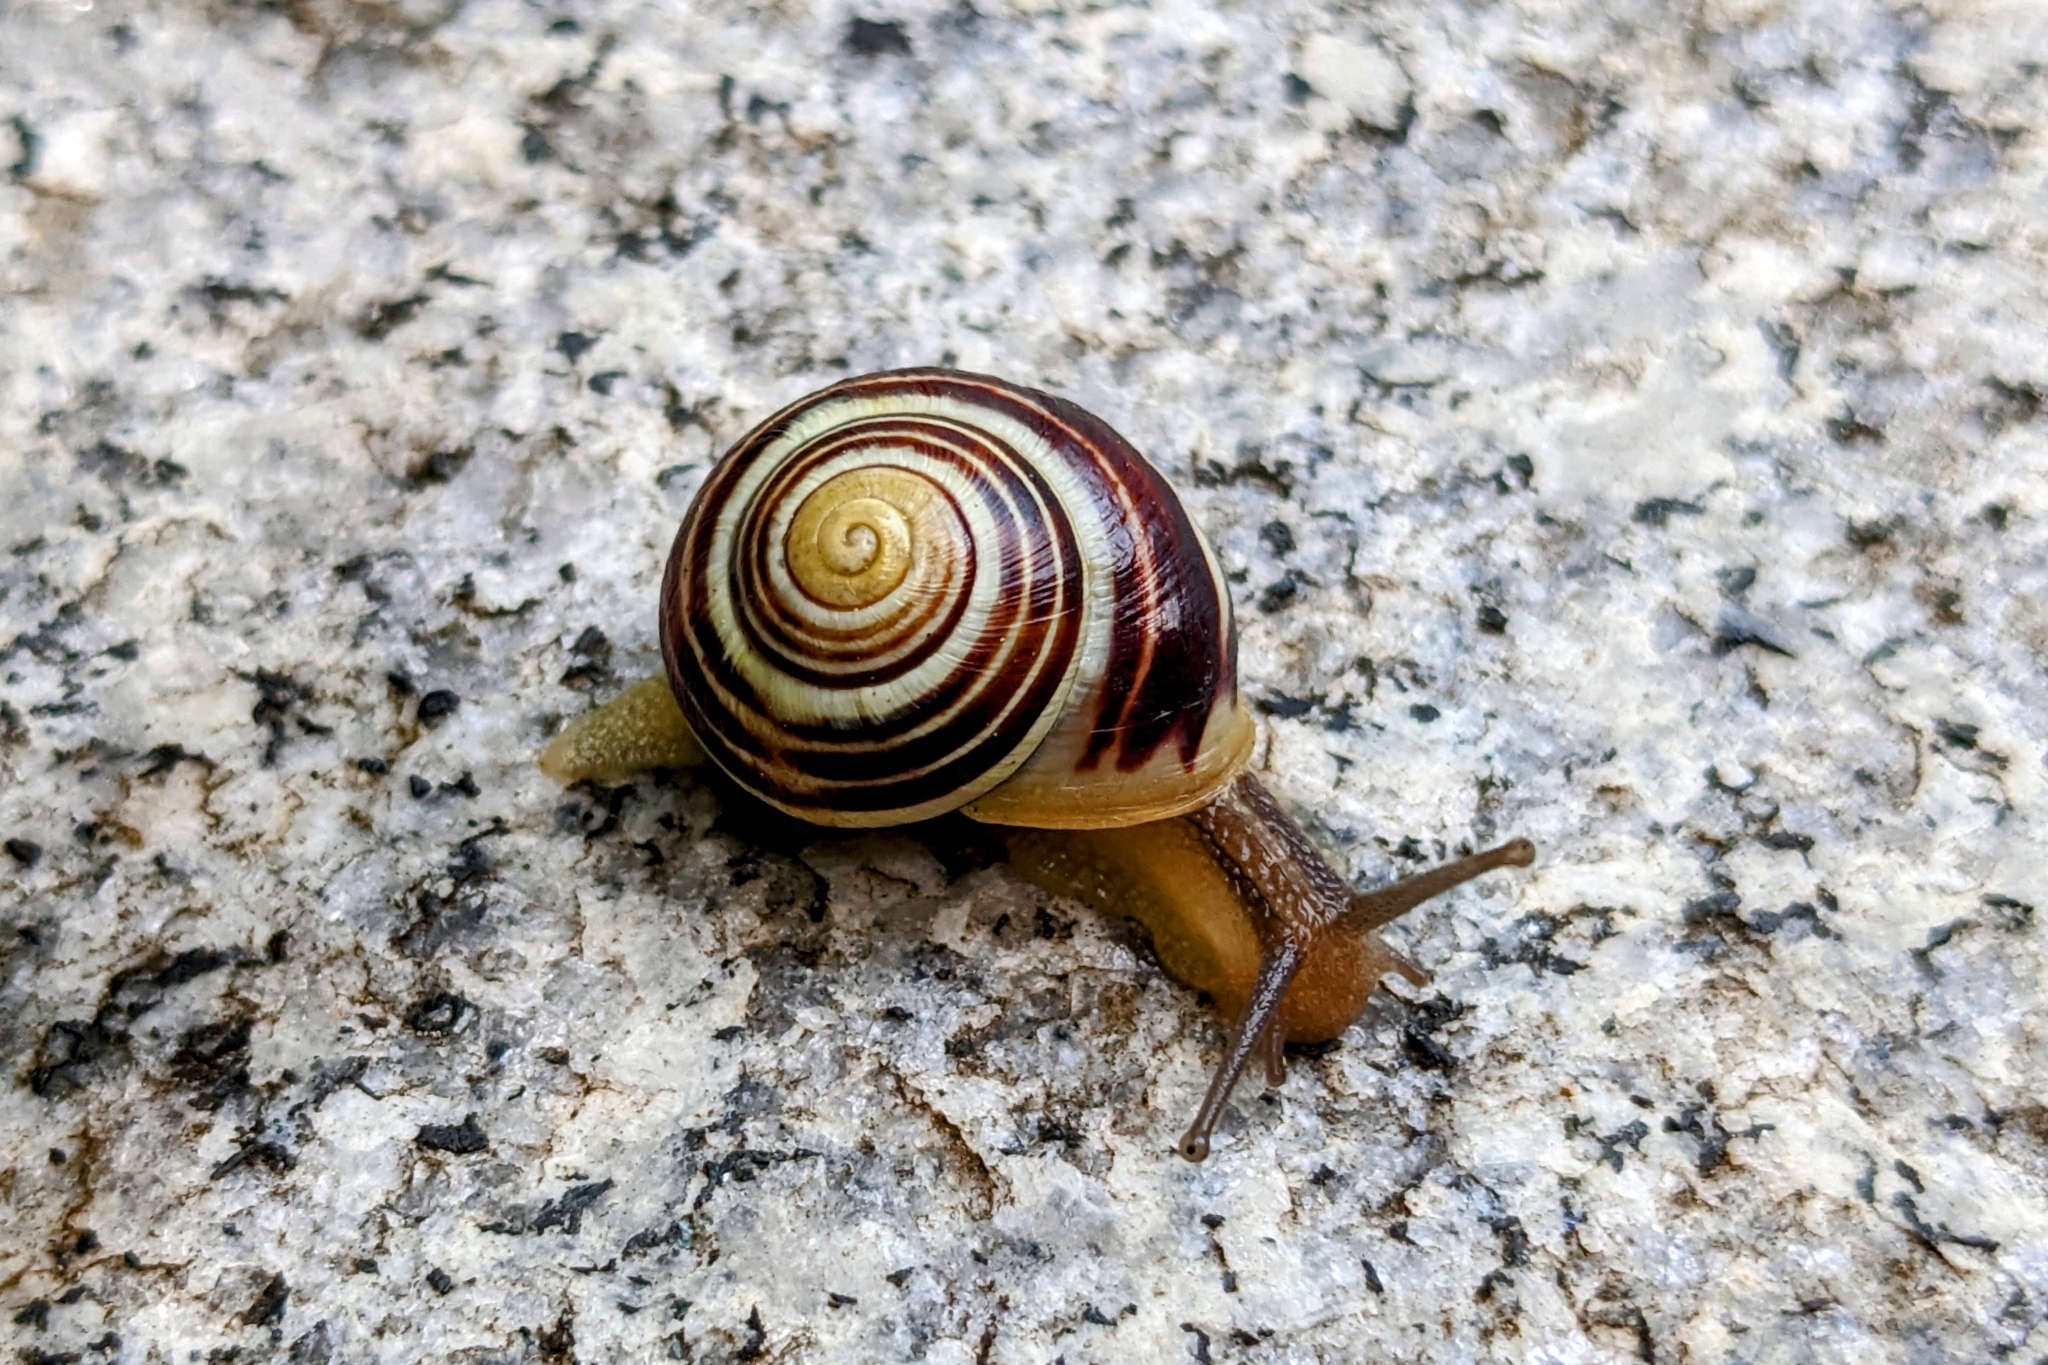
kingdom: Animalia
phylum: Mollusca
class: Gastropoda
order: Stylommatophora
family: Helicidae
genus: Cepaea
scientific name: Cepaea hortensis
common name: White-lip gardensnail
